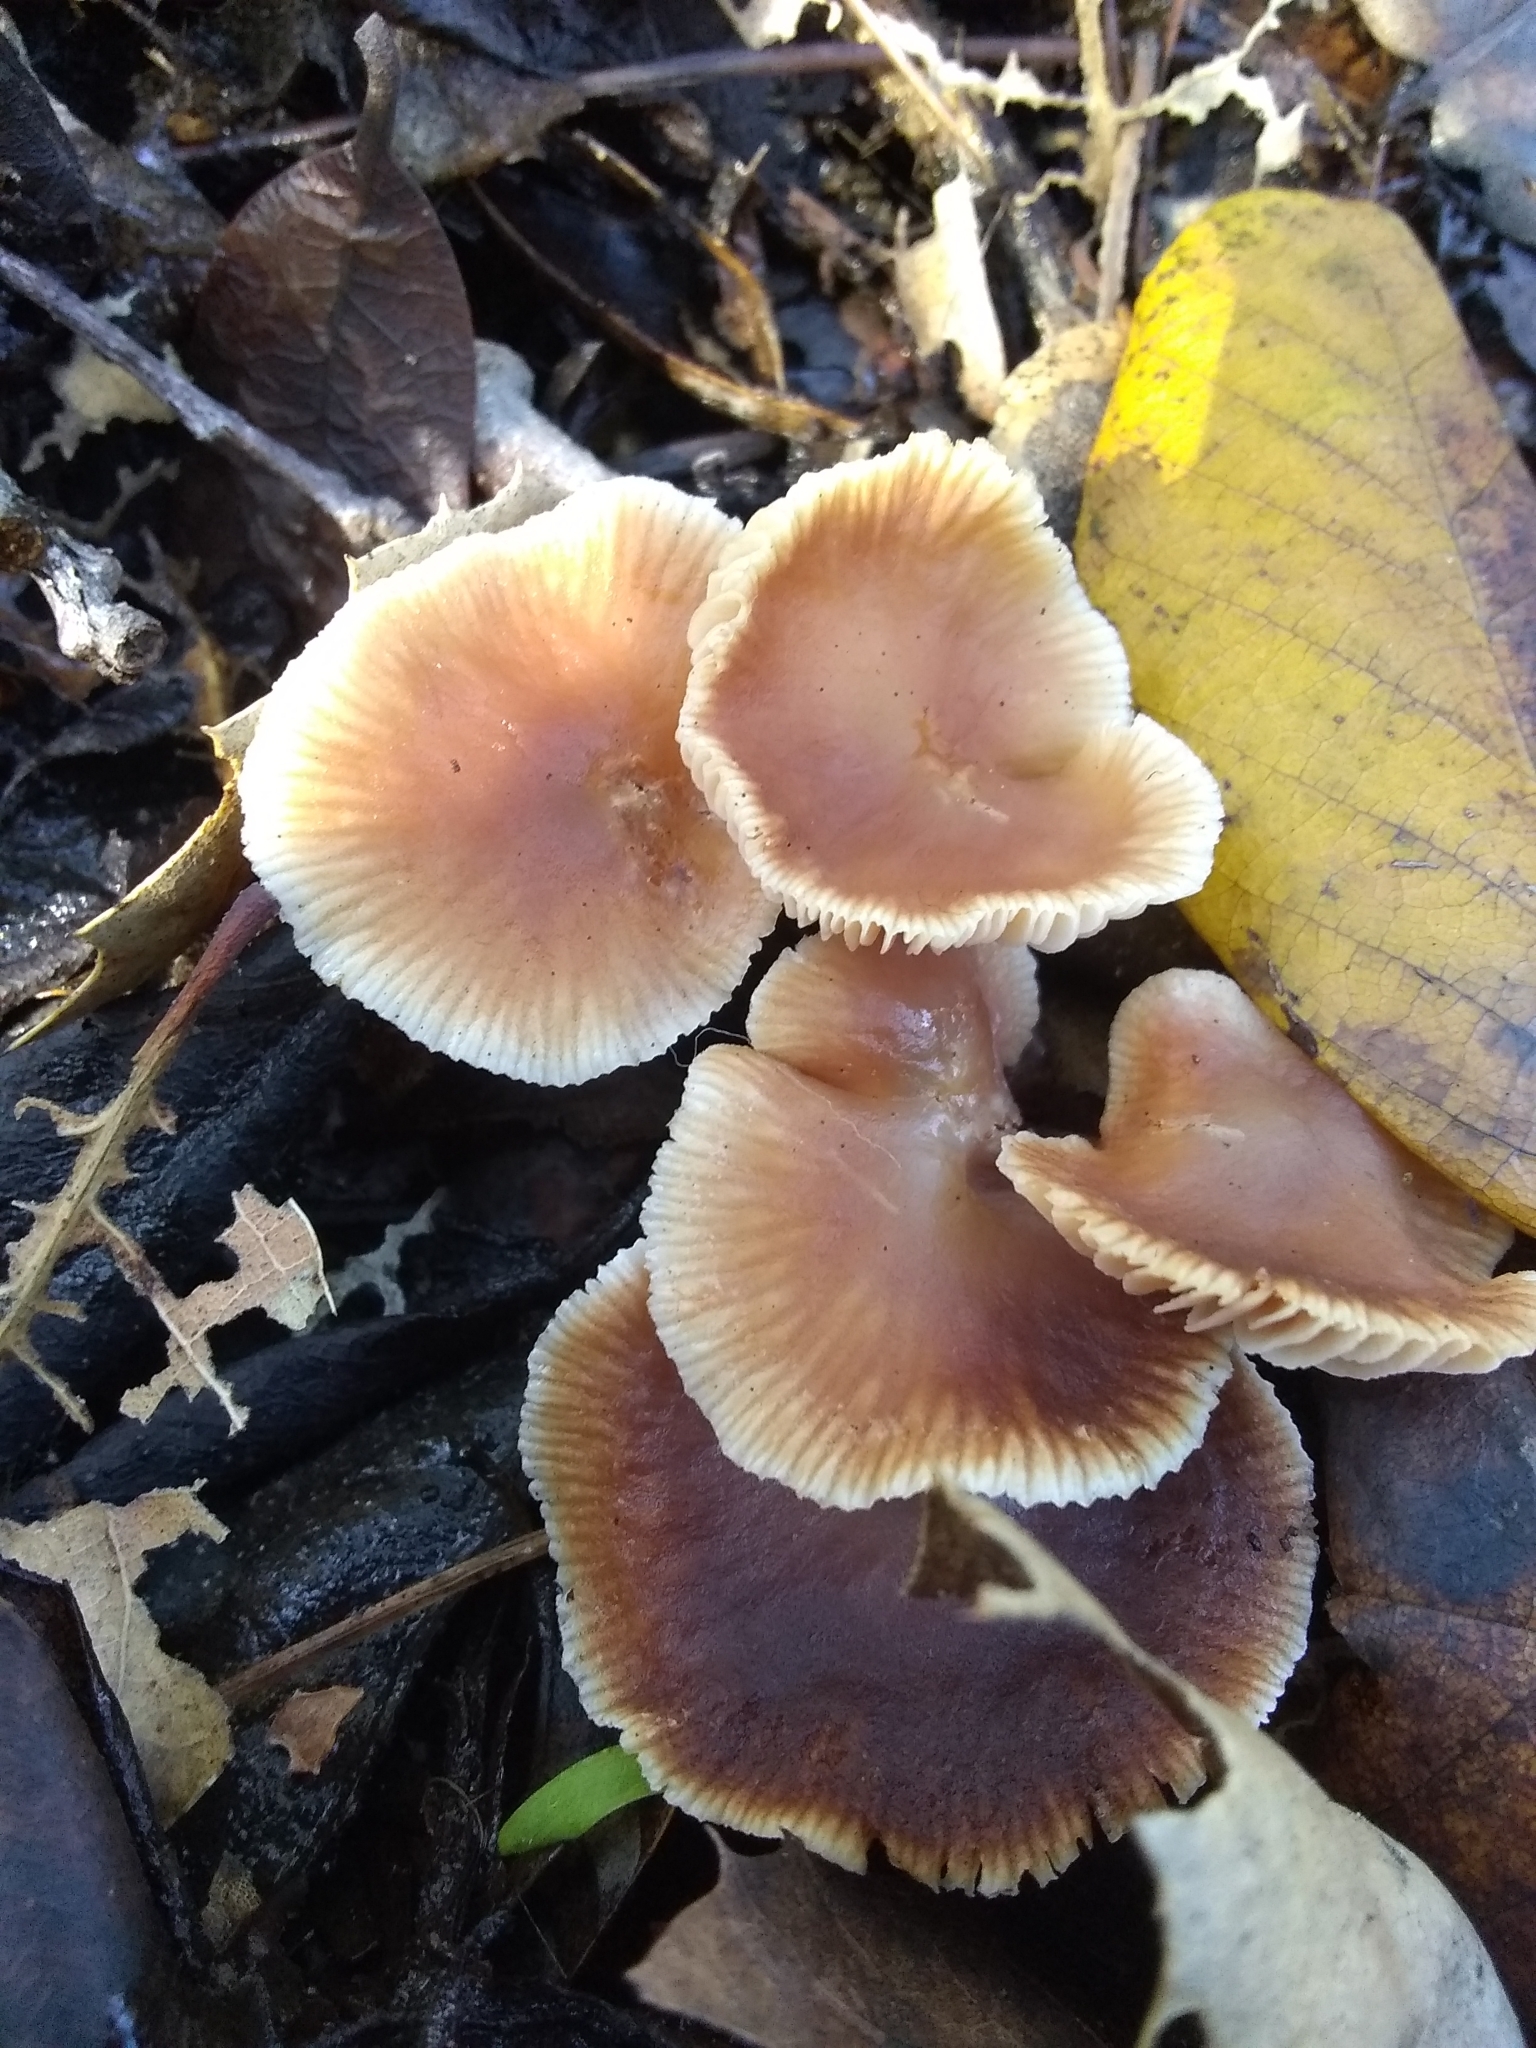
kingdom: Fungi
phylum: Basidiomycota
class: Agaricomycetes
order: Agaricales
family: Omphalotaceae
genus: Gymnopus
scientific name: Gymnopus brassicolens
